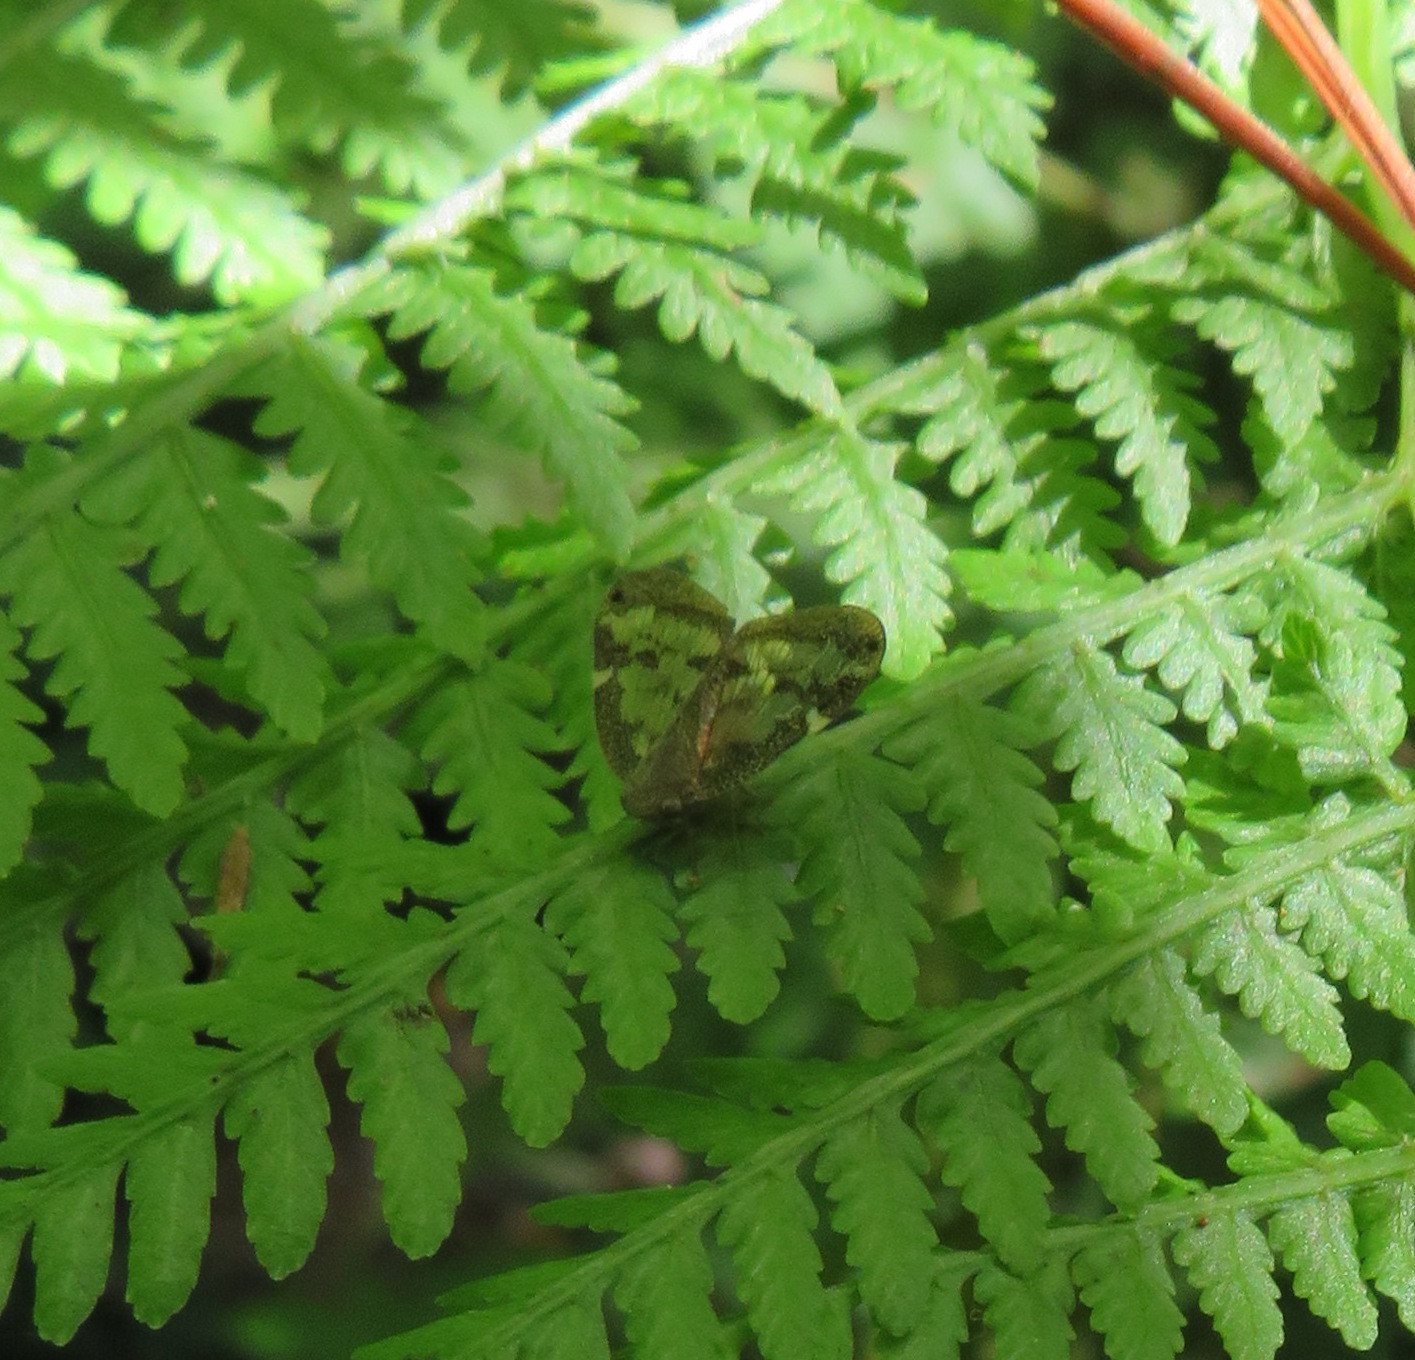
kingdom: Animalia
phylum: Arthropoda
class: Insecta
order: Hemiptera
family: Ricaniidae
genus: Scolypopa
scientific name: Scolypopa australis
